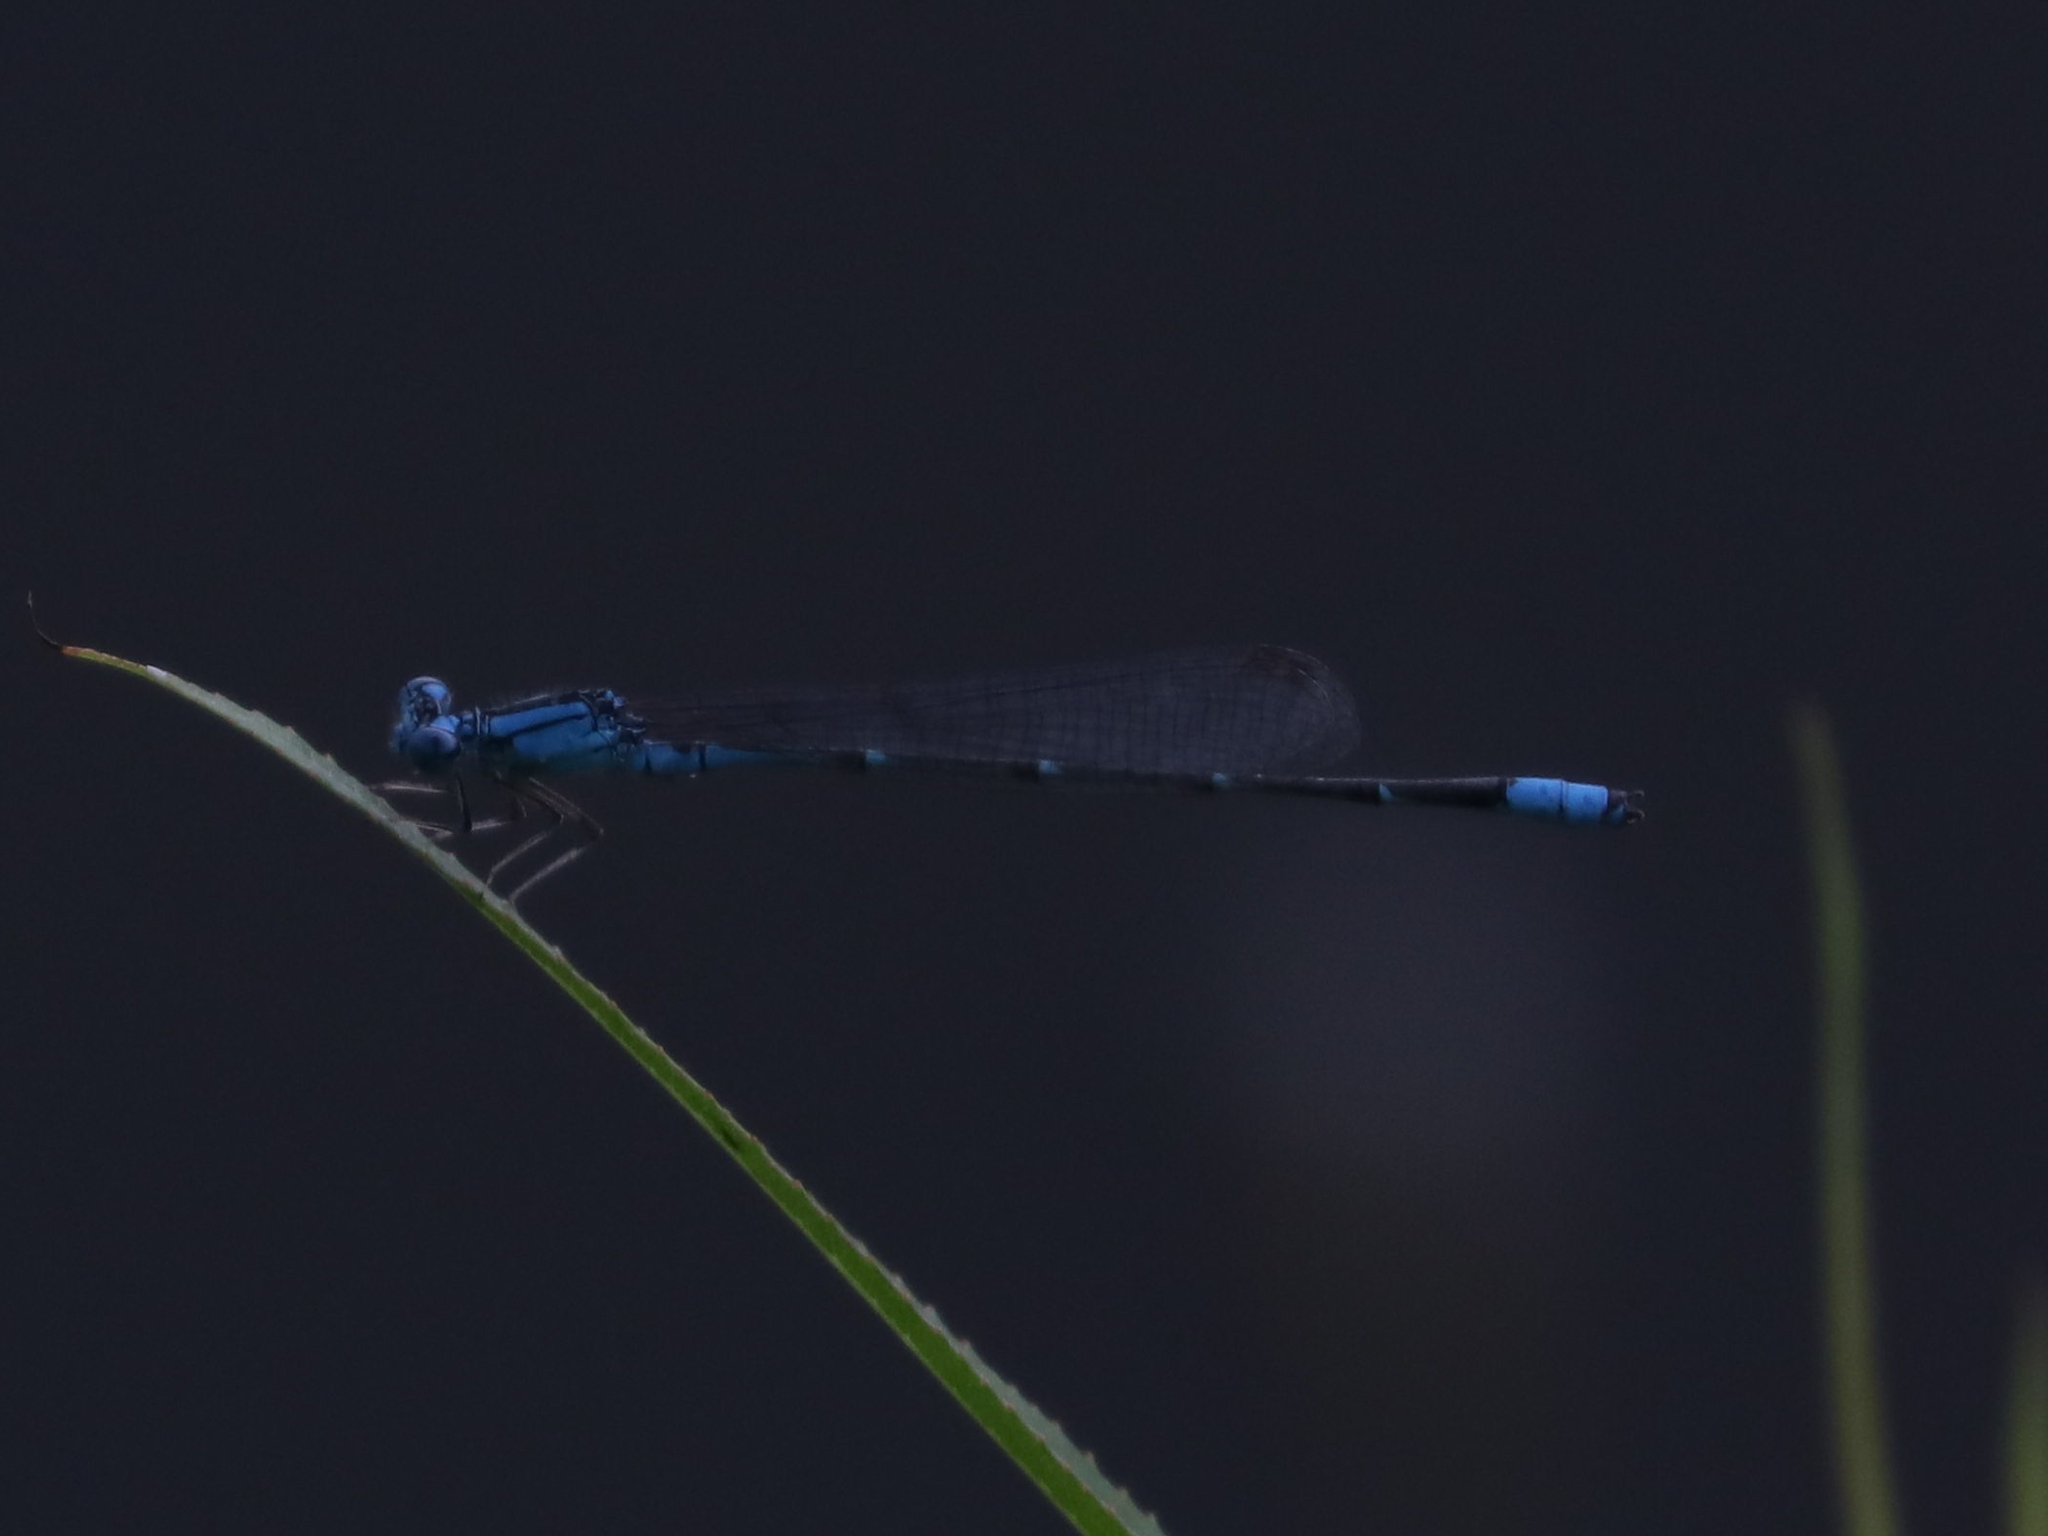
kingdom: Animalia
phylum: Arthropoda
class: Insecta
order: Odonata
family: Coenagrionidae
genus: Enallagma
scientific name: Enallagma traviatum
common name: Slender bluet
